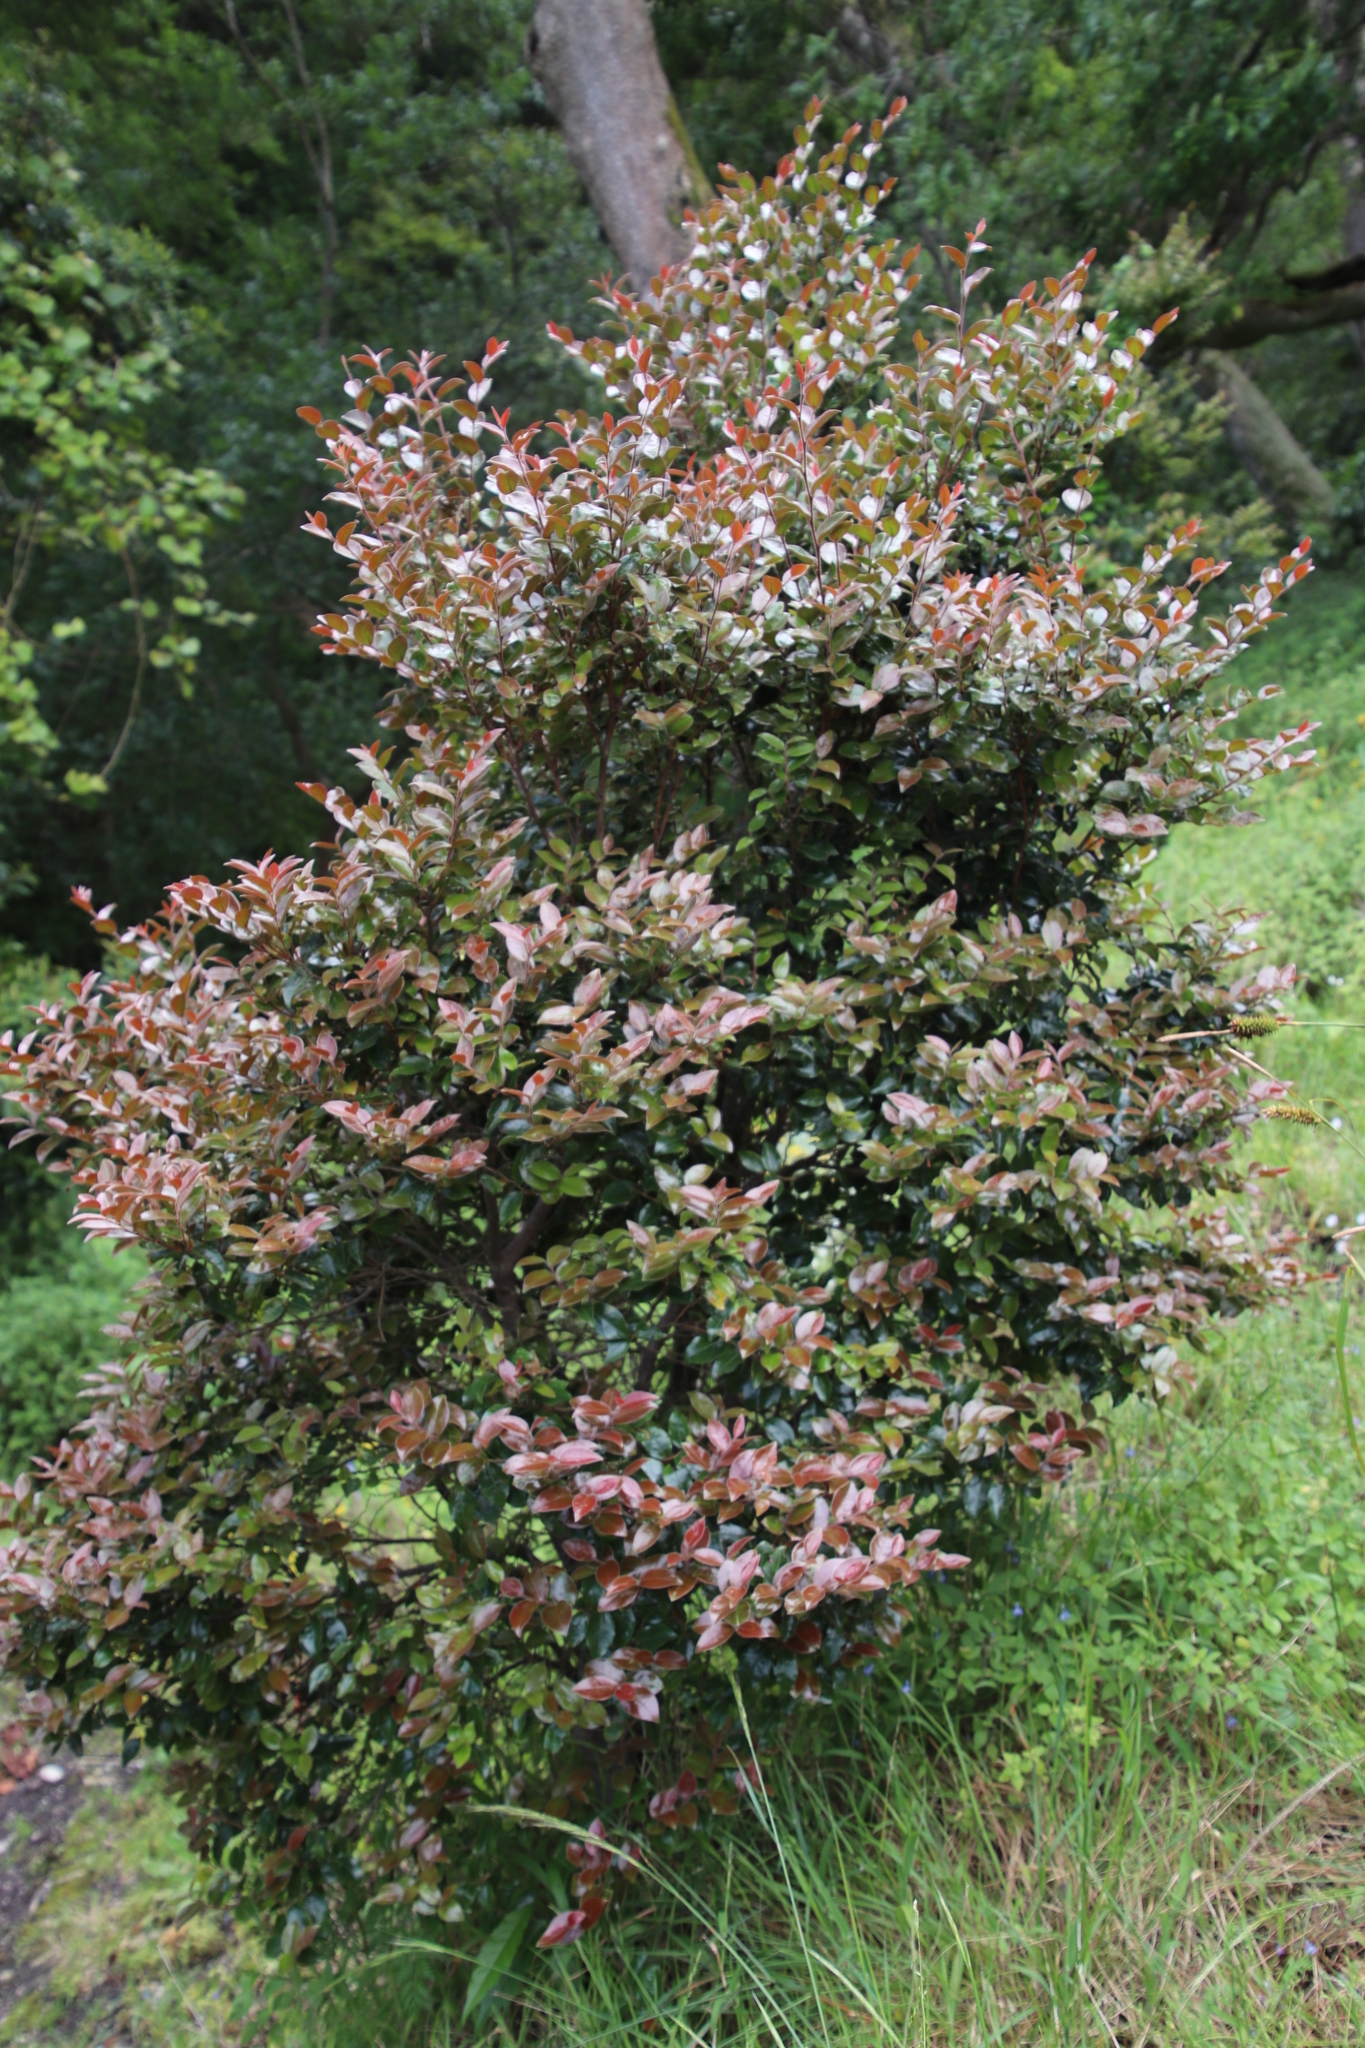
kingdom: Plantae
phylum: Tracheophyta
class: Magnoliopsida
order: Ericales
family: Ebenaceae
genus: Diospyros
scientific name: Diospyros whyteana
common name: Bladder-nut
